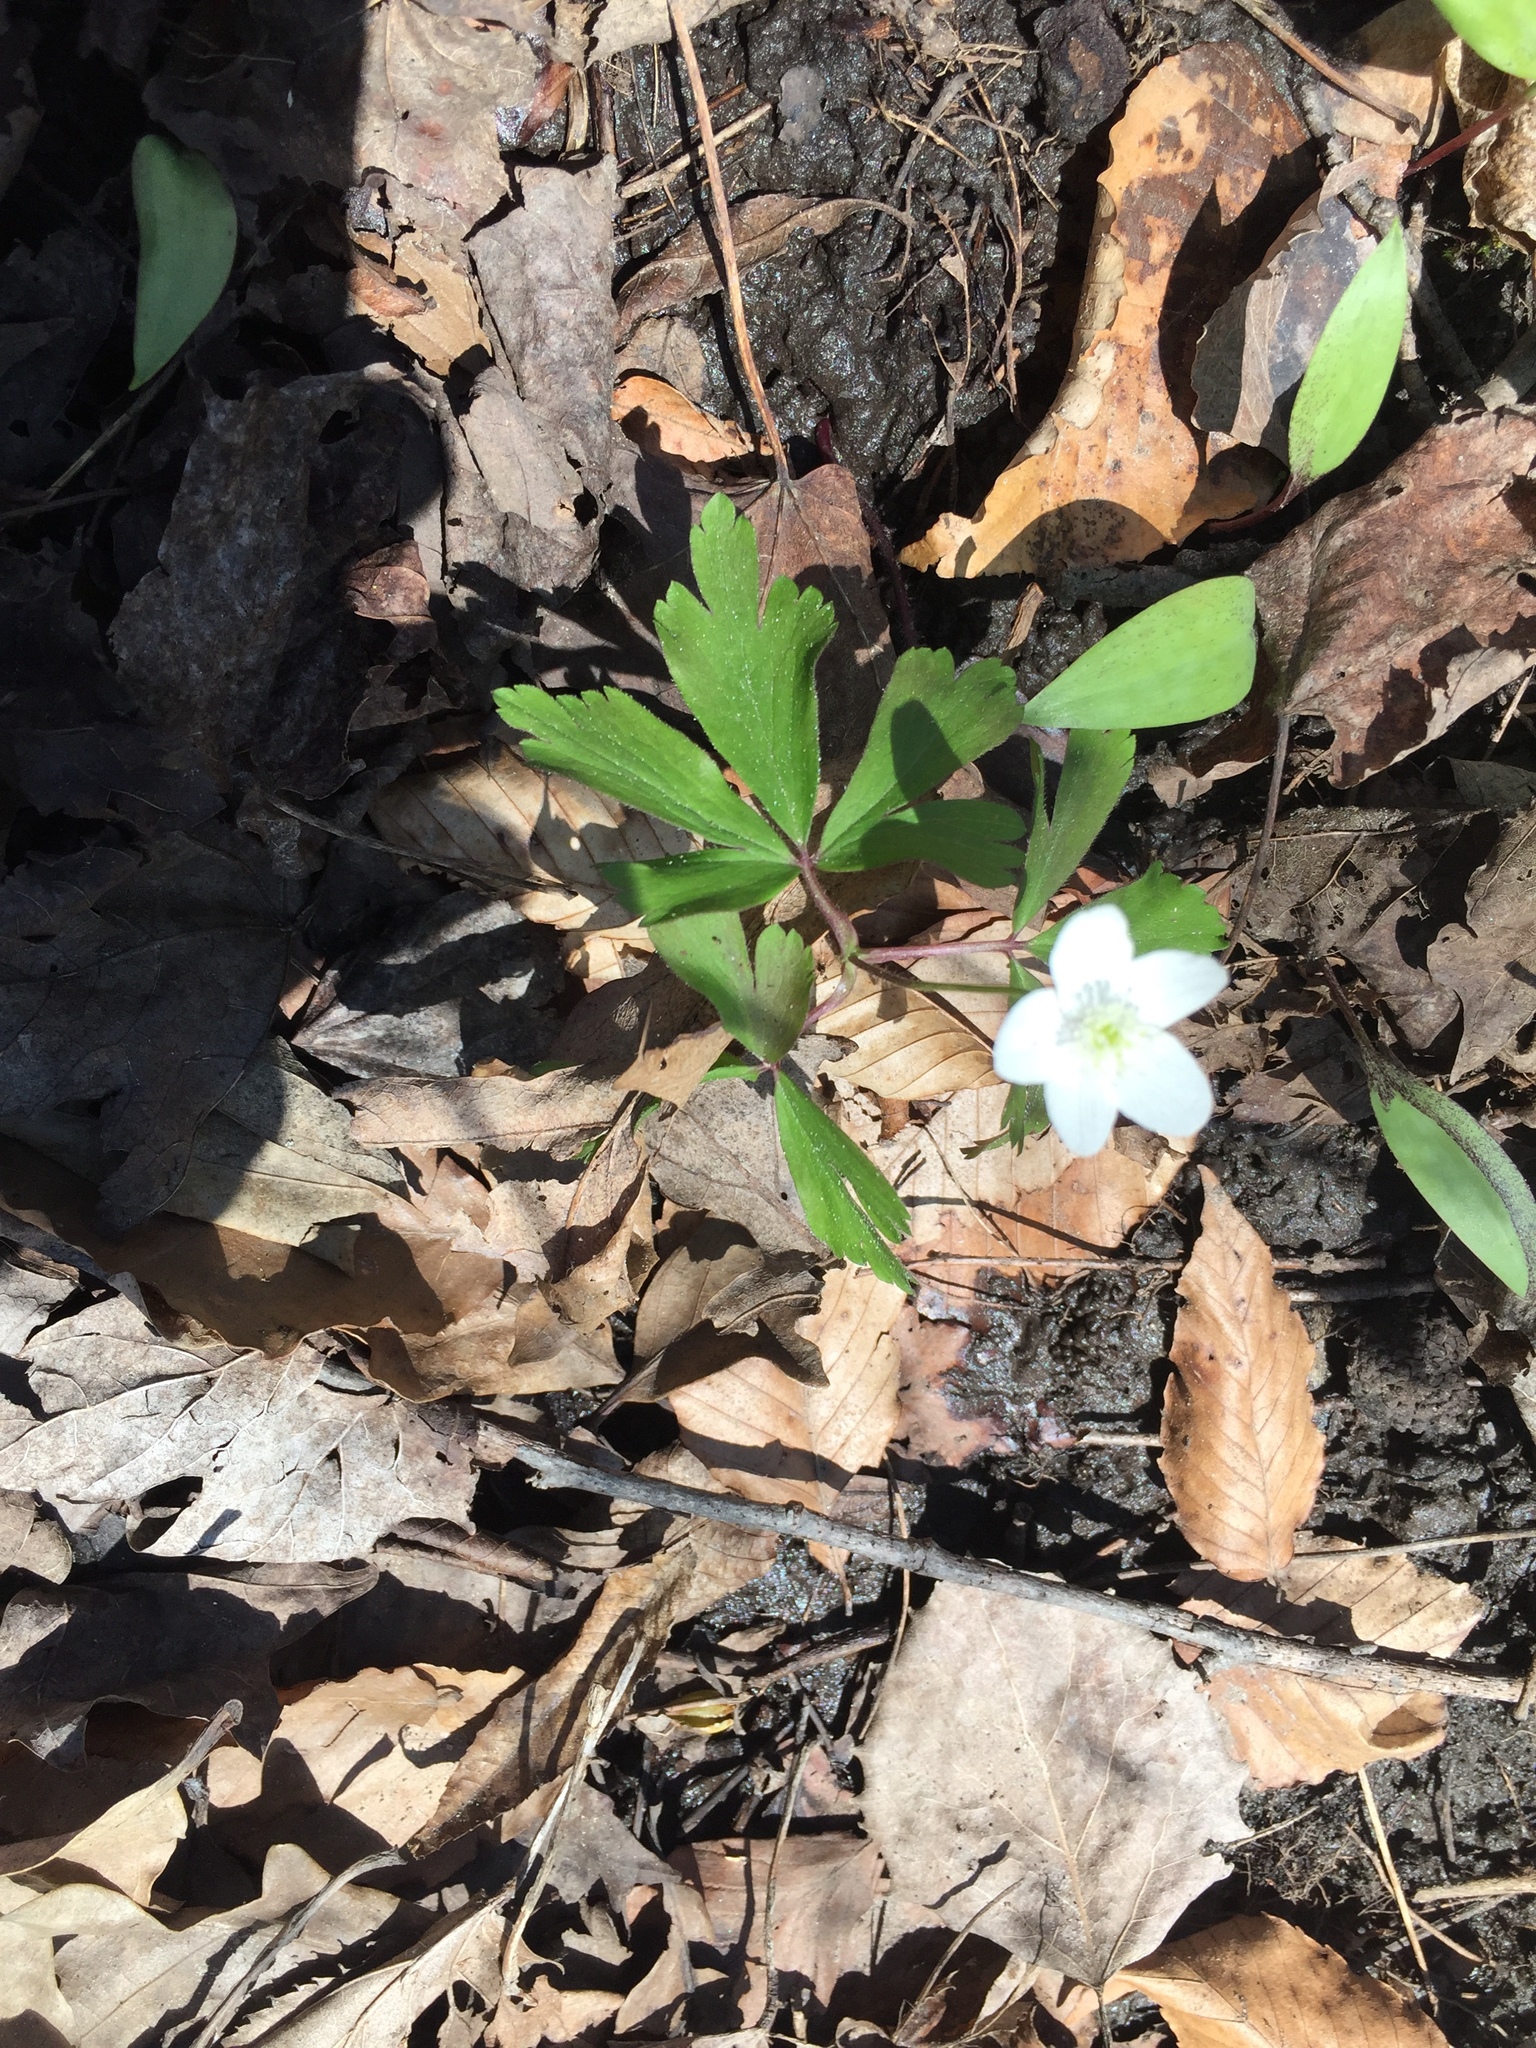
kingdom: Plantae
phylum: Tracheophyta
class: Magnoliopsida
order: Ranunculales
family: Ranunculaceae
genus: Anemone
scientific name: Anemone quinquefolia
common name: Wood anemone
